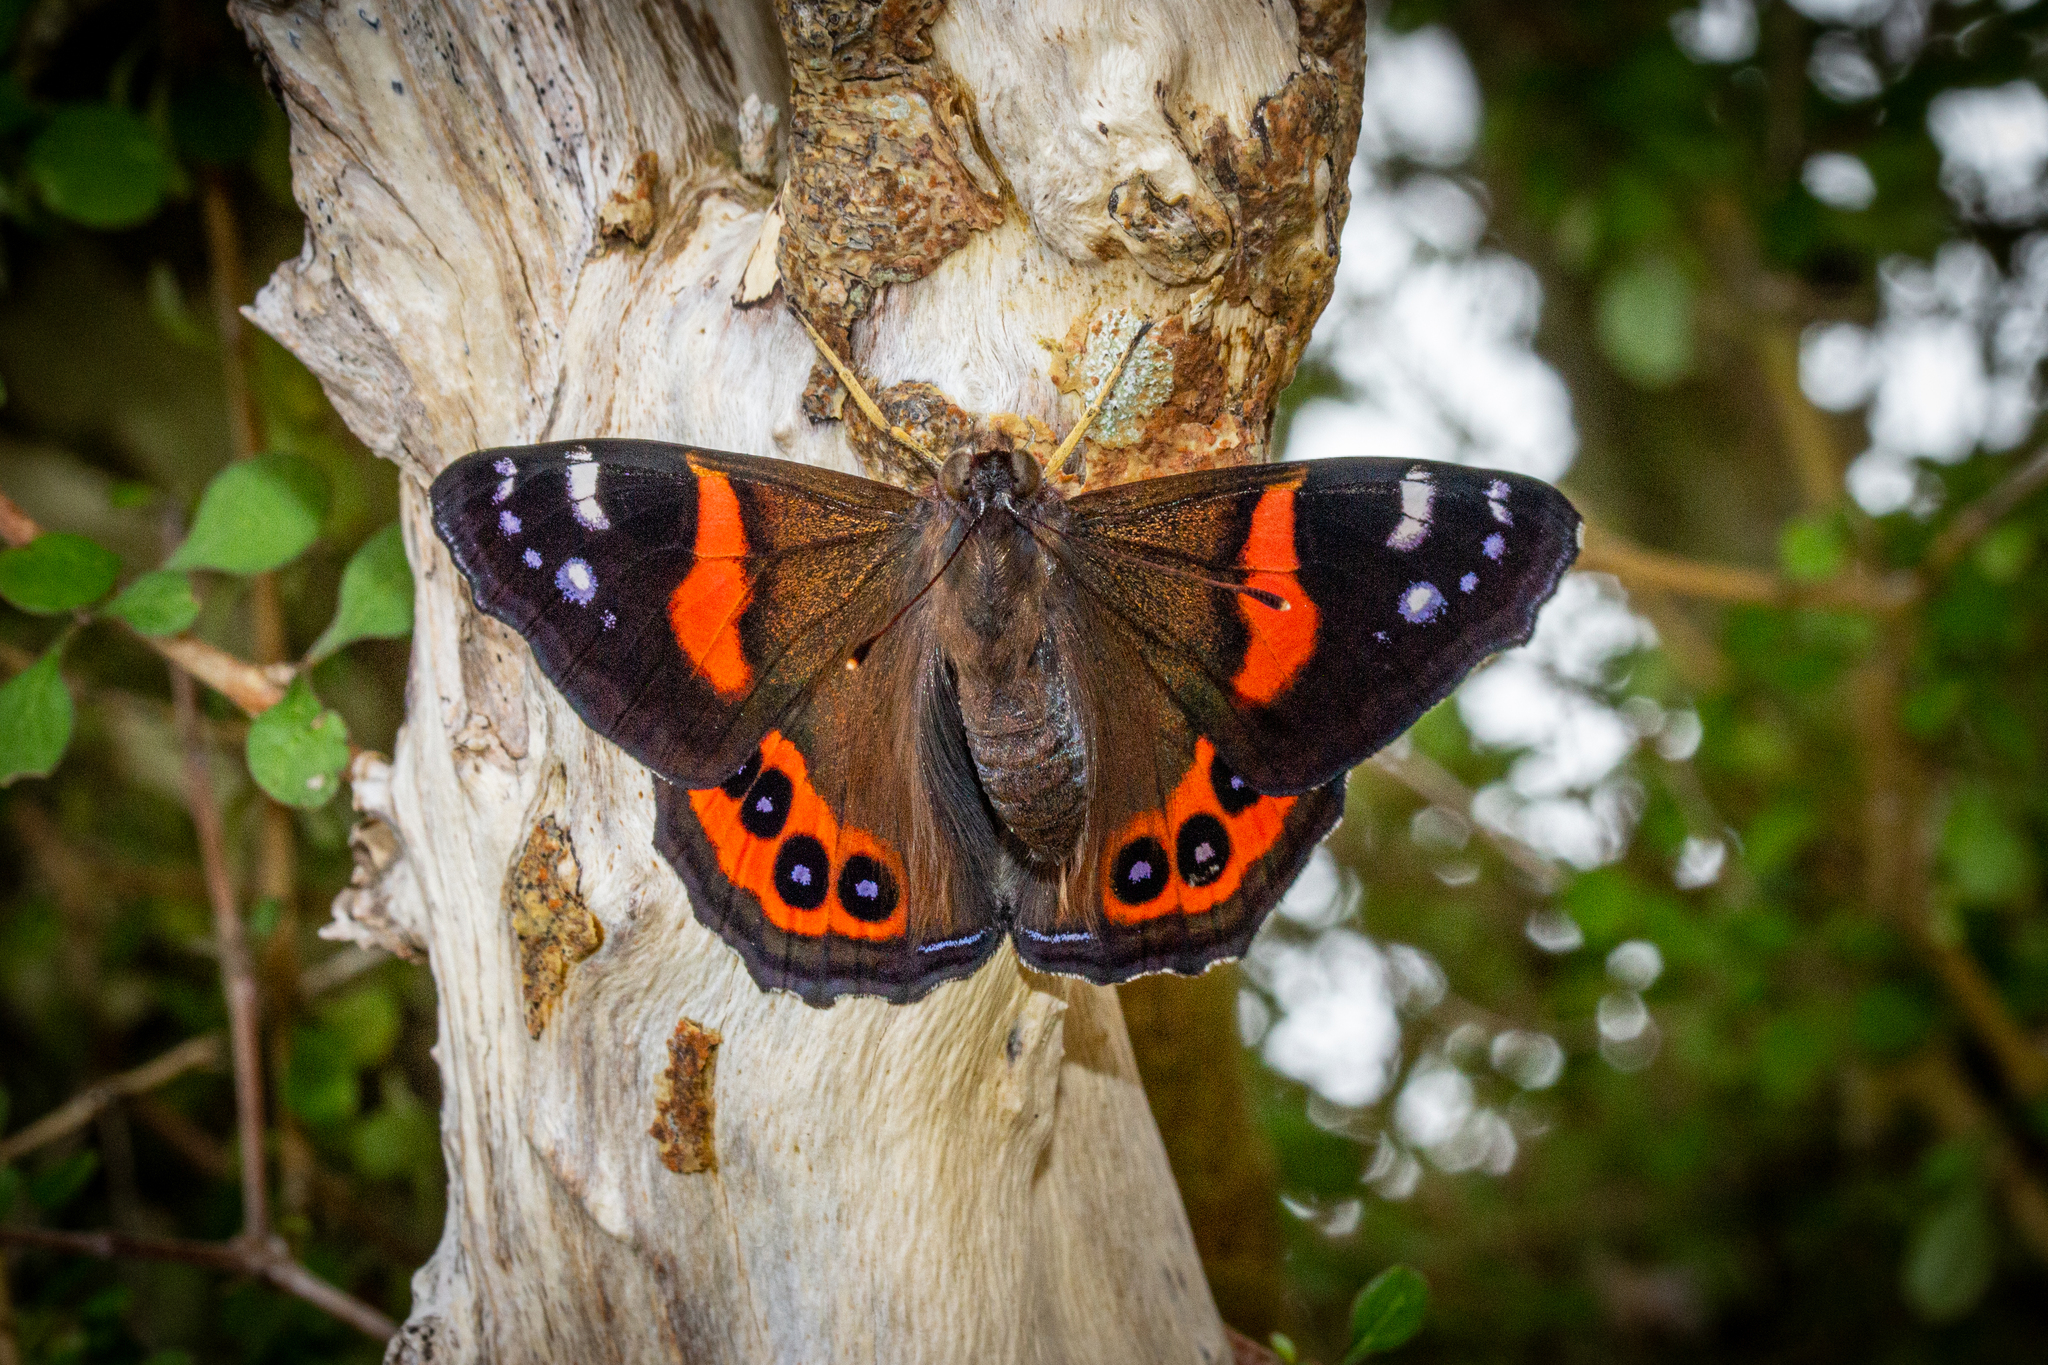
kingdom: Animalia
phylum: Arthropoda
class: Insecta
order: Lepidoptera
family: Nymphalidae
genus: Vanessa
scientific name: Vanessa gonerilla
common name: New zealand red admiral
